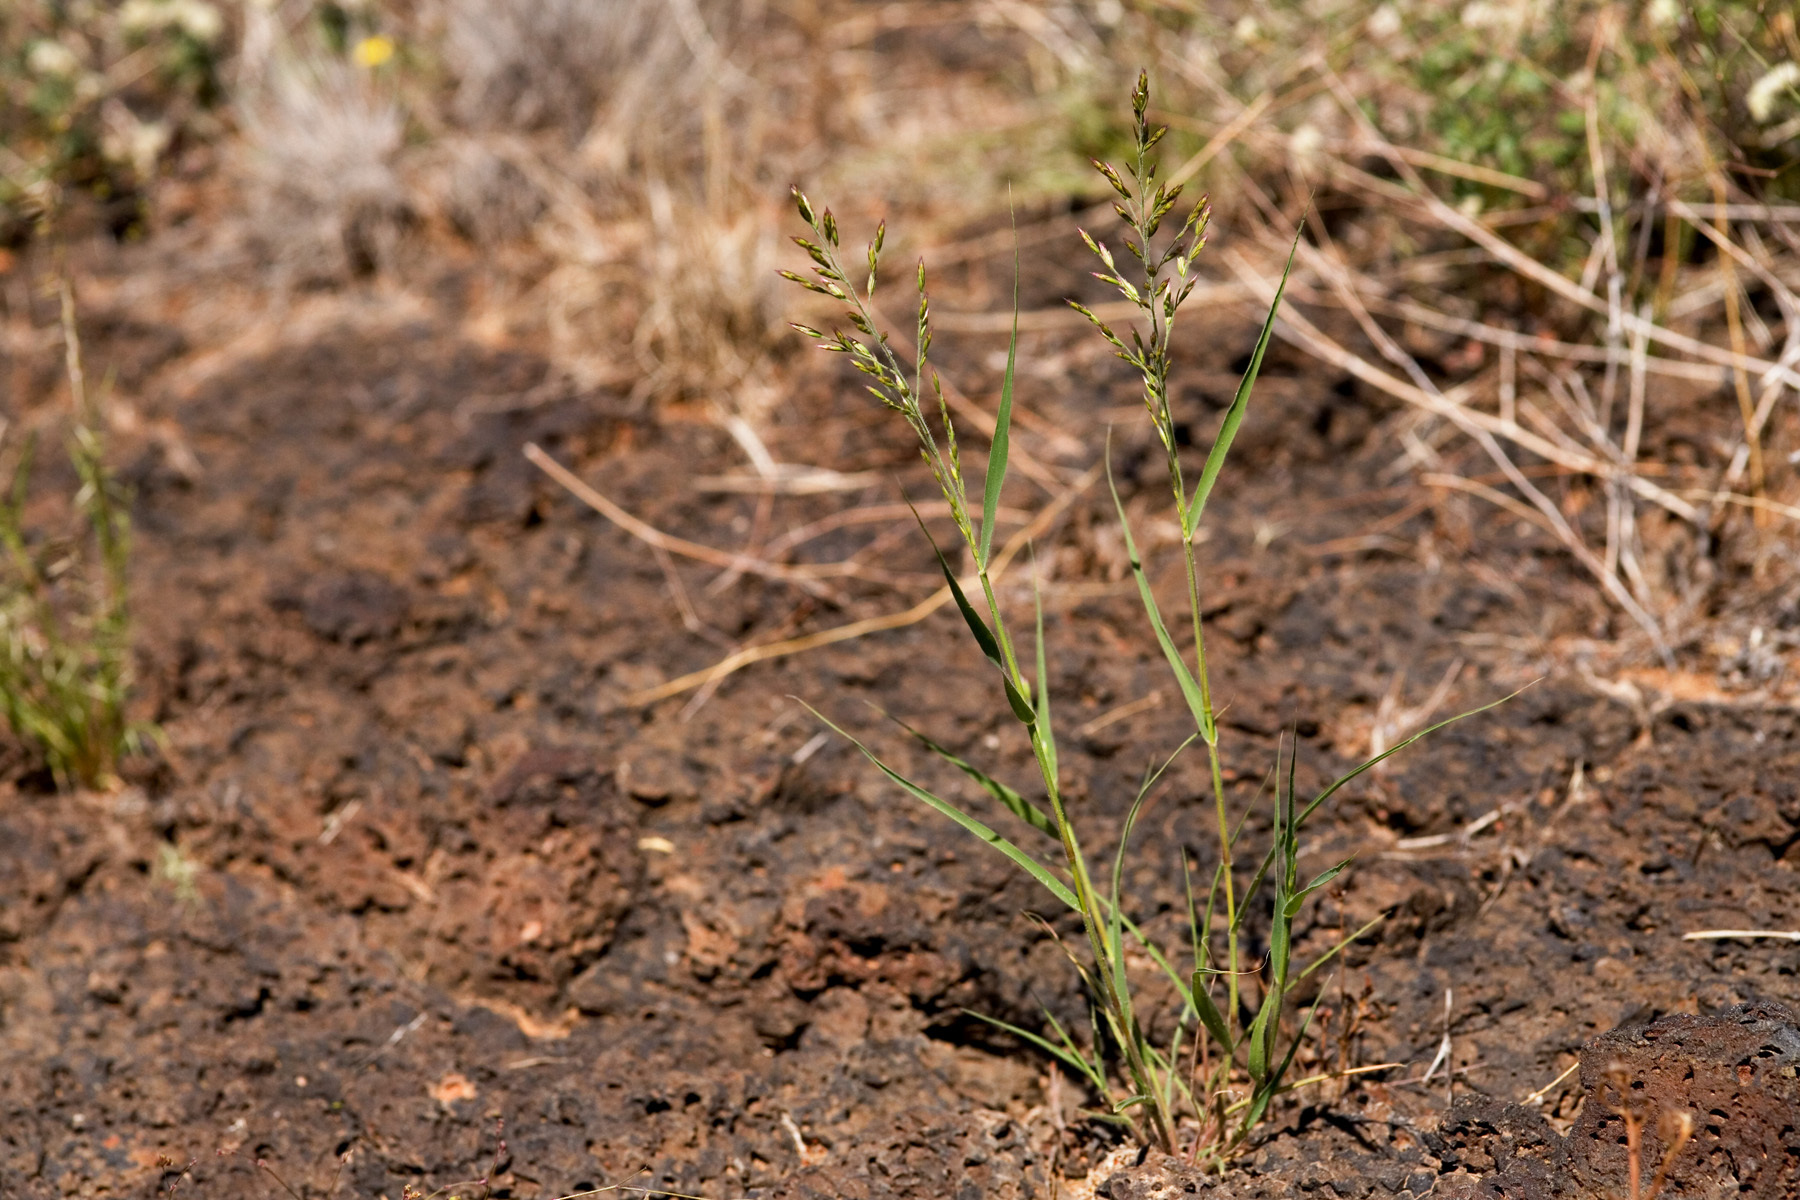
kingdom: Plantae
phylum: Tracheophyta
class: Liliopsida
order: Poales
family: Poaceae
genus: Cottea
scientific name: Cottea pappophoroides
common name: Cotta grass
